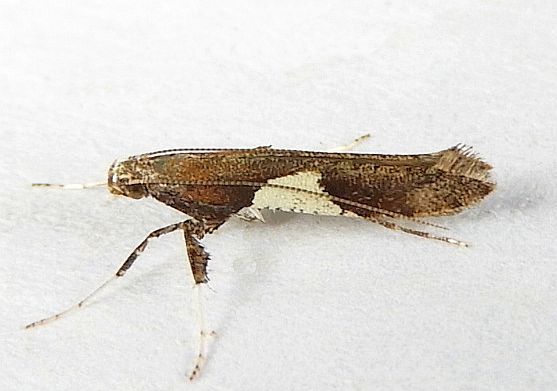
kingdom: Animalia
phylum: Arthropoda
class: Insecta
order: Lepidoptera
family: Gracillariidae
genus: Caloptilia
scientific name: Caloptilia stigmatella
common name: White-triangle slender
